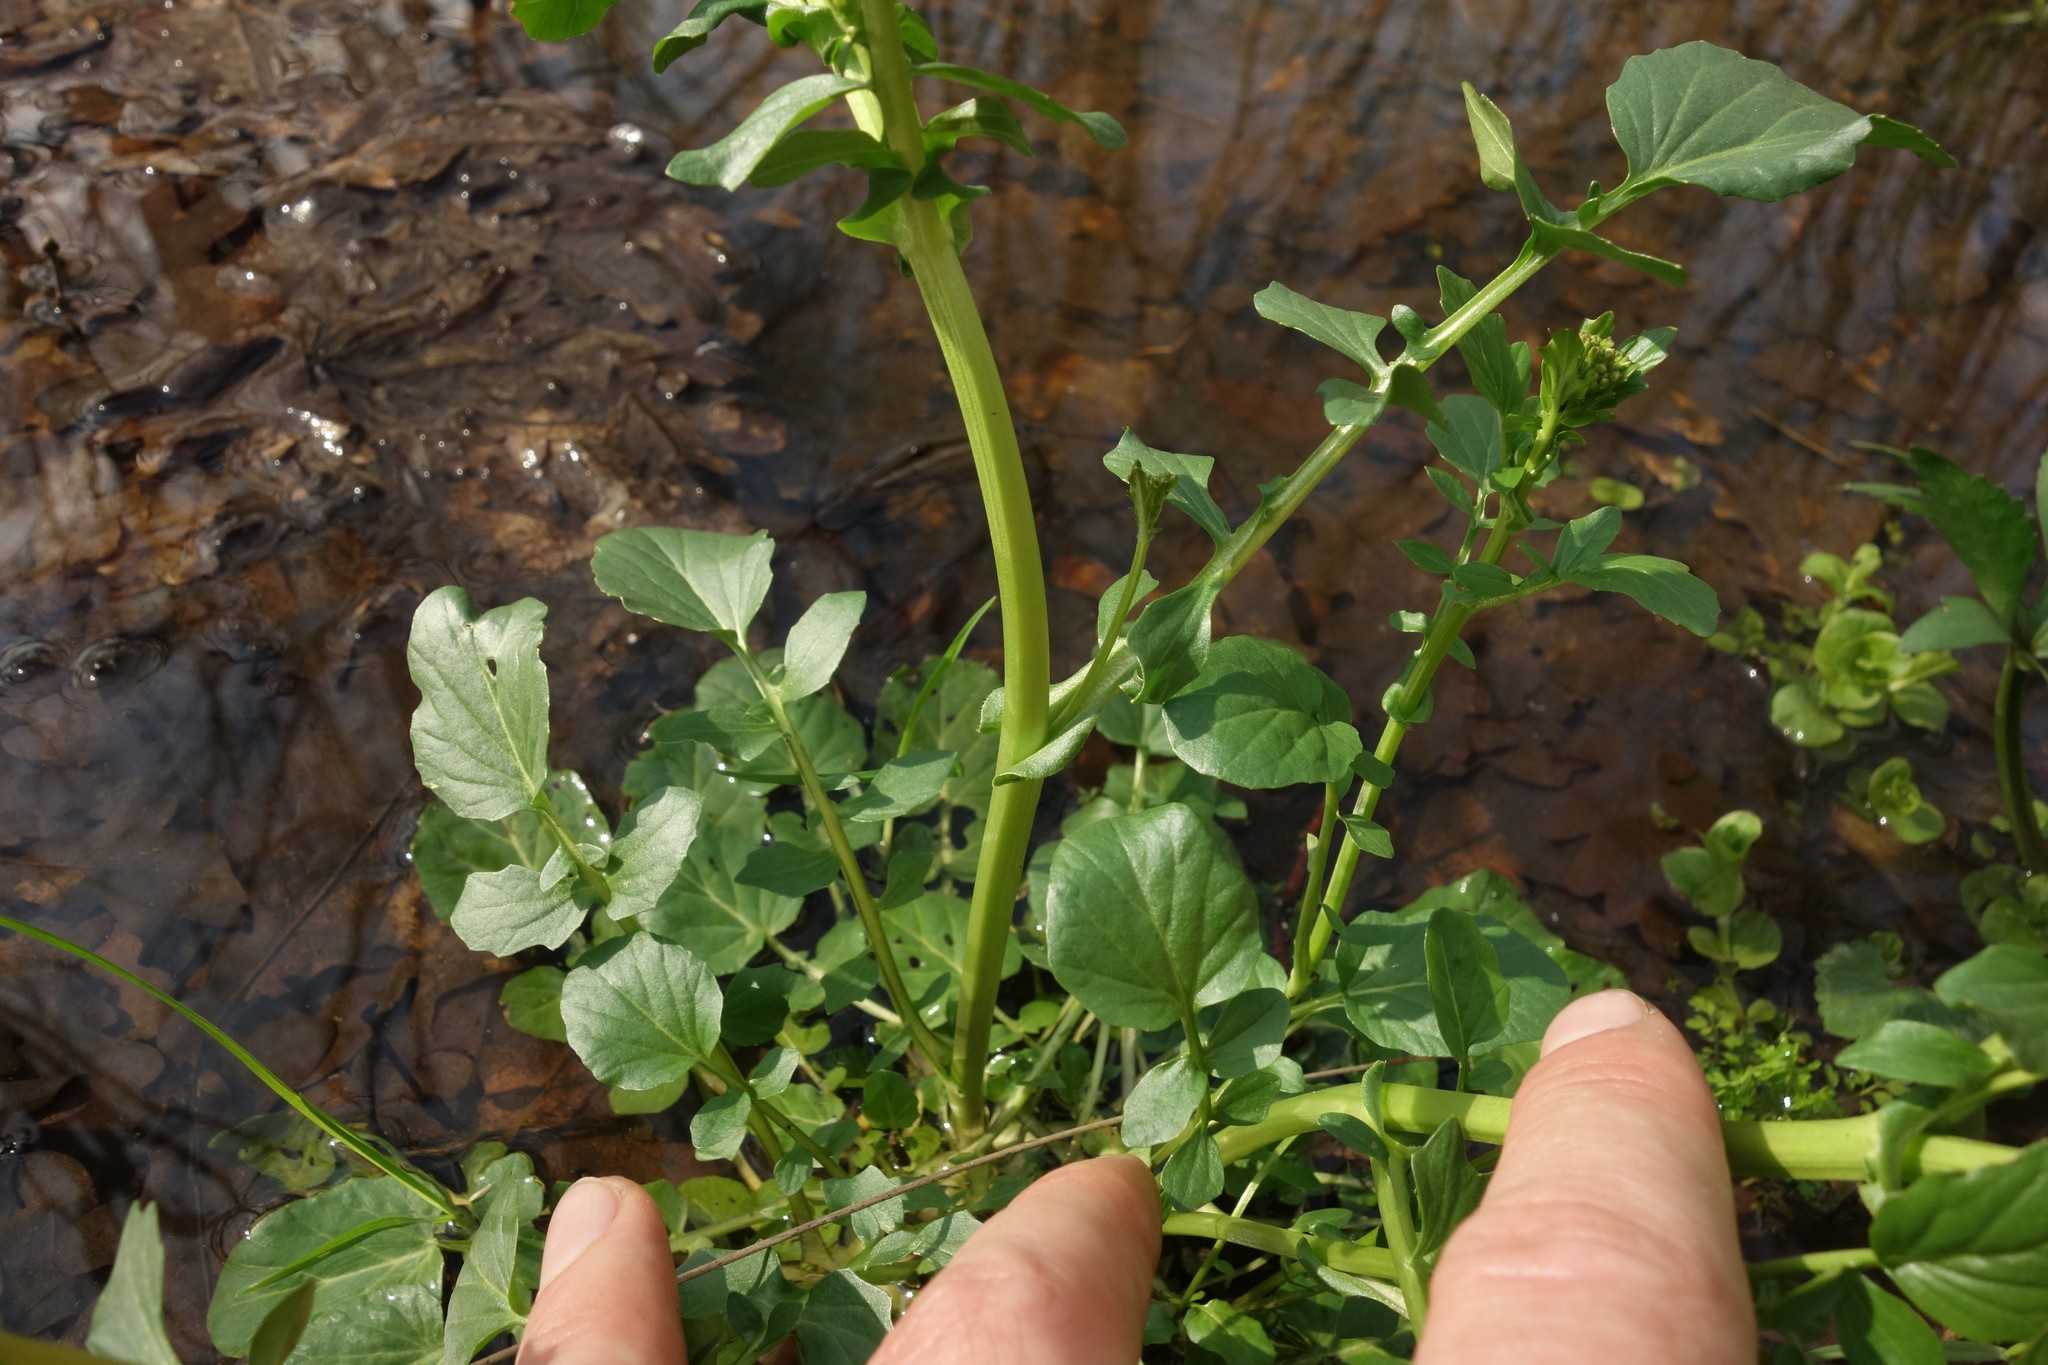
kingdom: Plantae
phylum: Tracheophyta
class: Magnoliopsida
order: Brassicales
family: Brassicaceae
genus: Barbarea
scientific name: Barbarea vulgaris
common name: Cressy-greens
